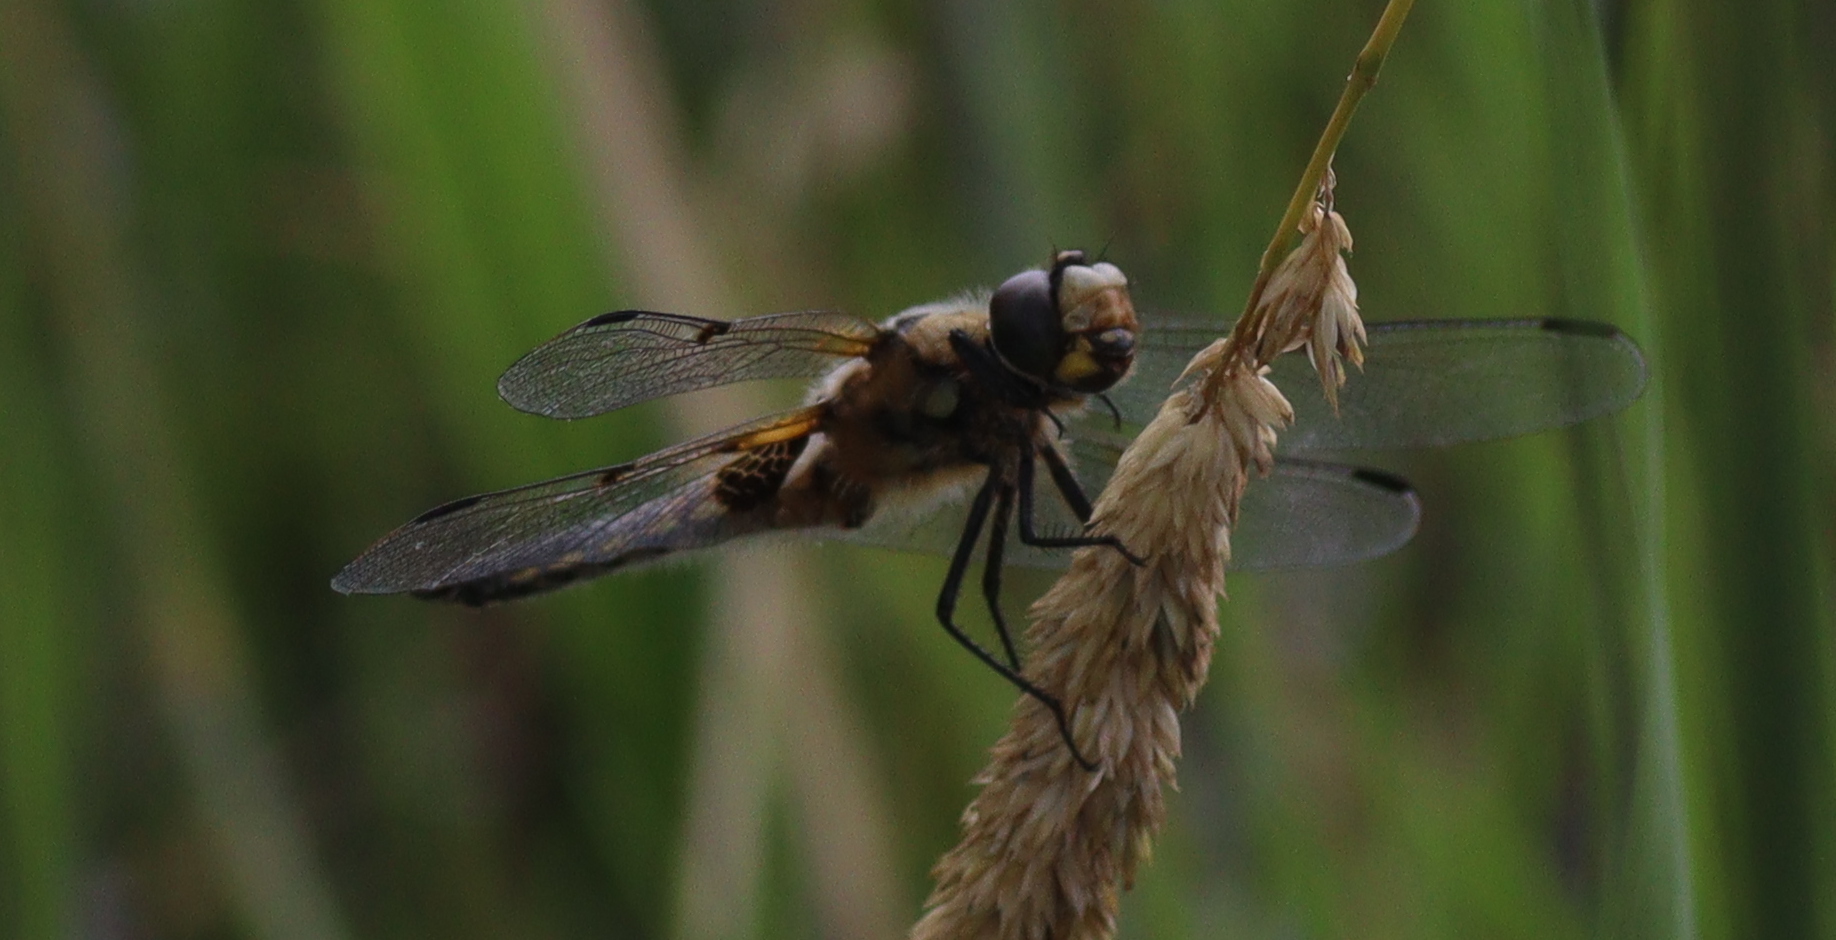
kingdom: Animalia
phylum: Arthropoda
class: Insecta
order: Odonata
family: Libellulidae
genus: Libellula
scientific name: Libellula quadrimaculata
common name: Four-spotted chaser
